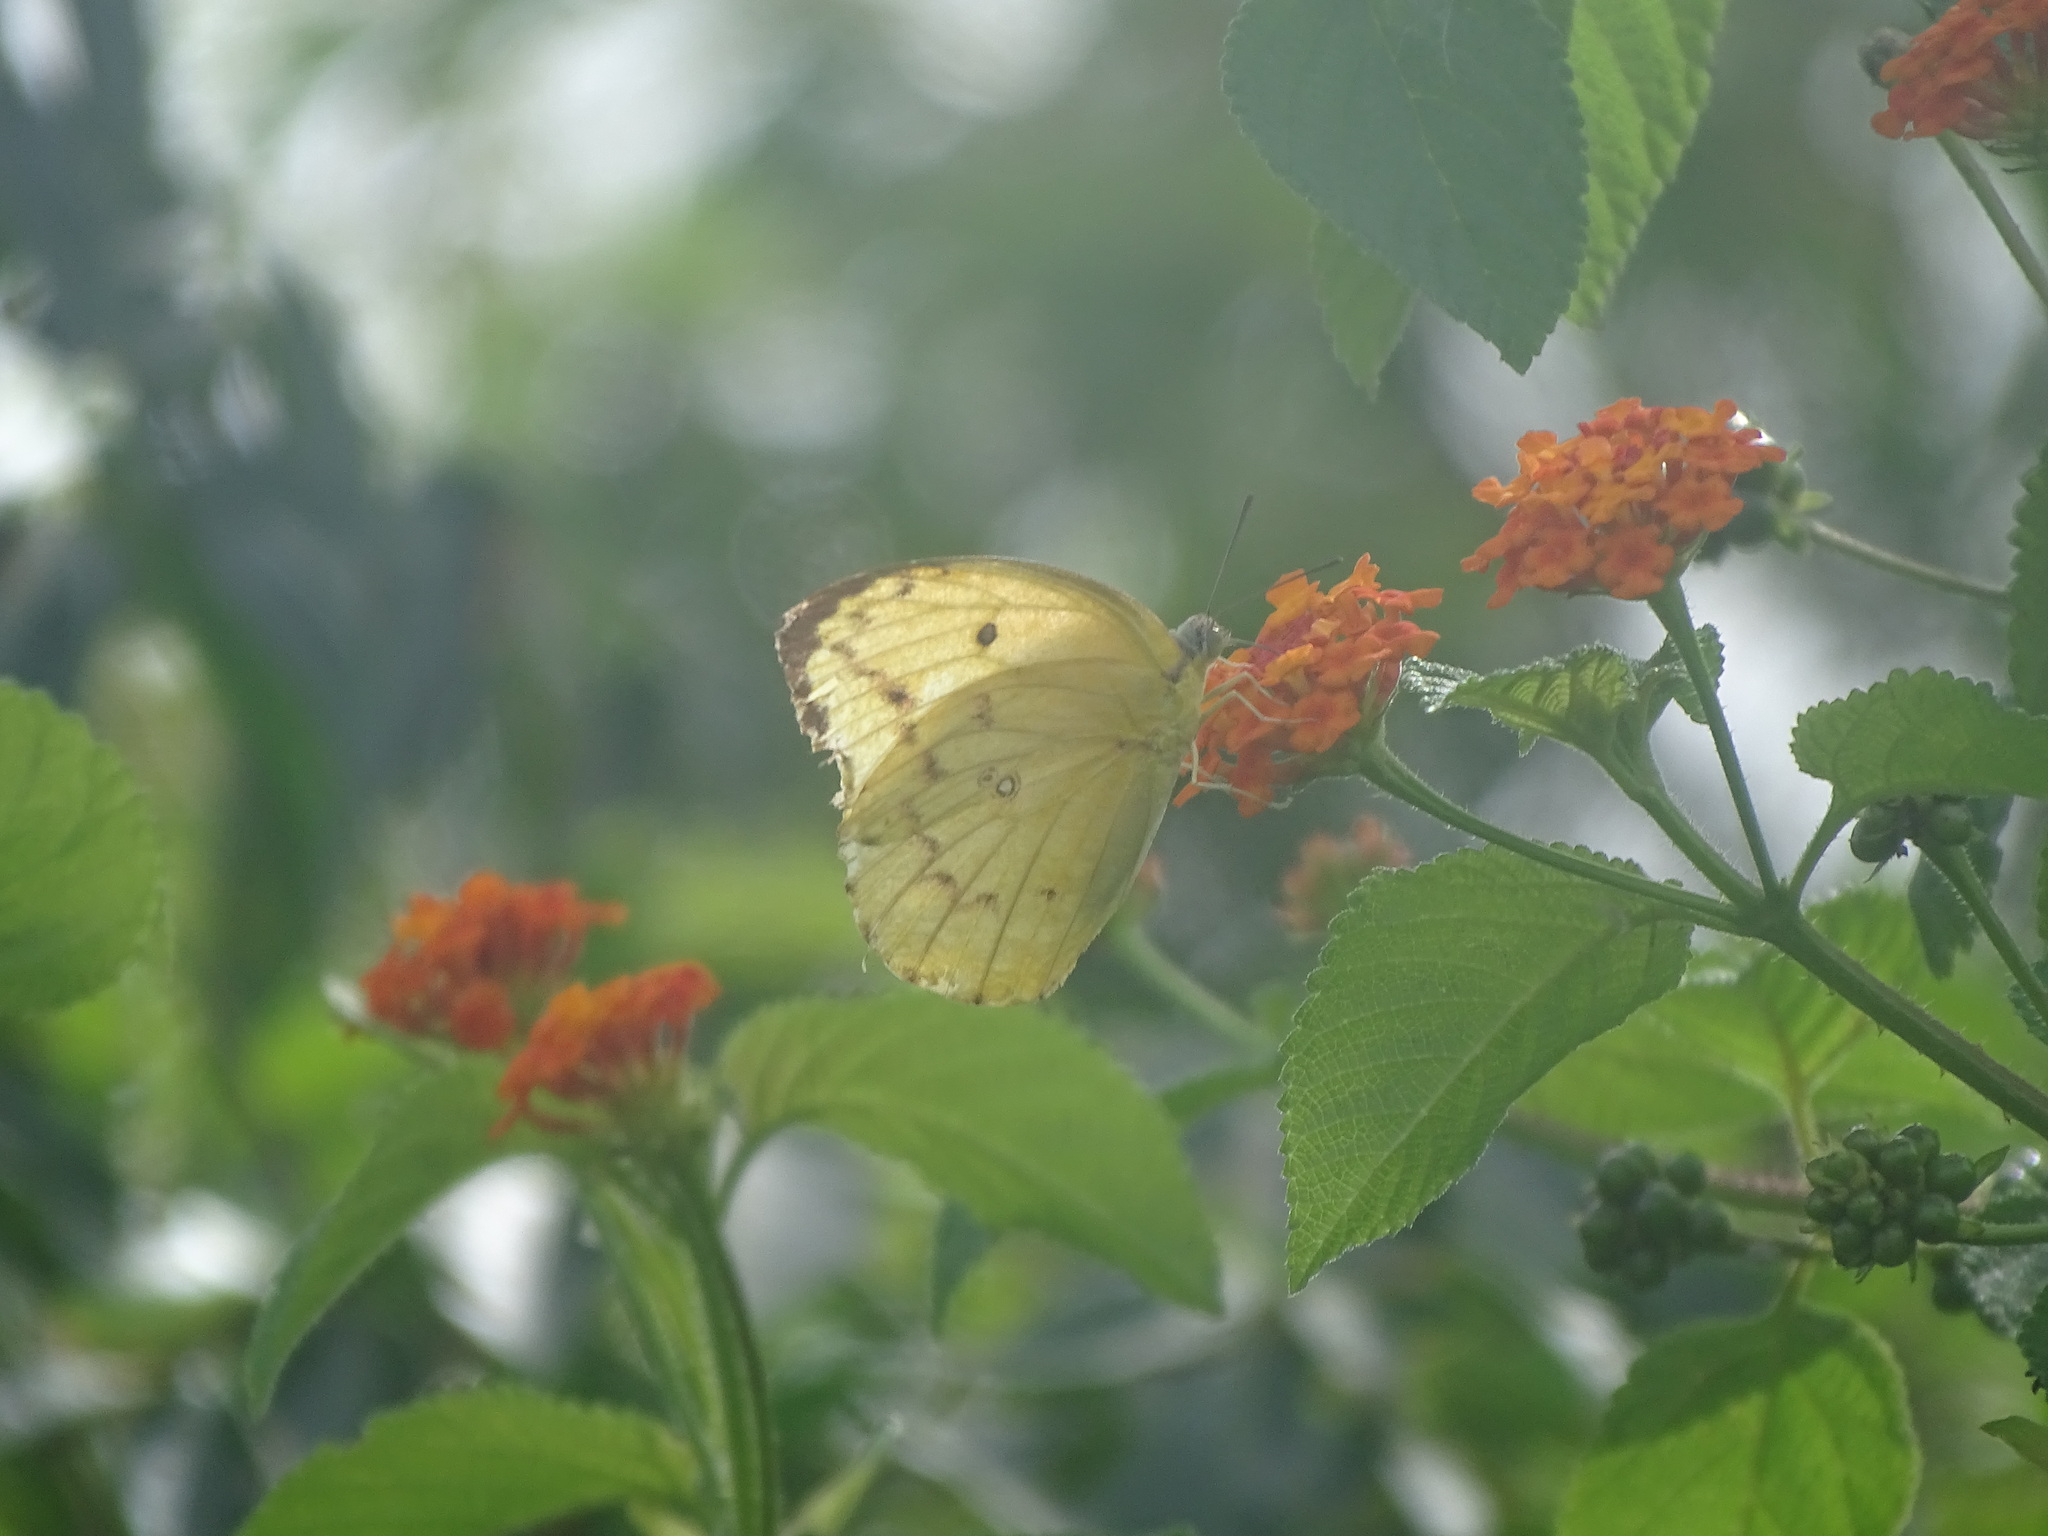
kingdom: Animalia
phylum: Arthropoda
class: Insecta
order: Lepidoptera
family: Pieridae
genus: Catopsilia
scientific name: Catopsilia pomona
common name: Common emigrant
